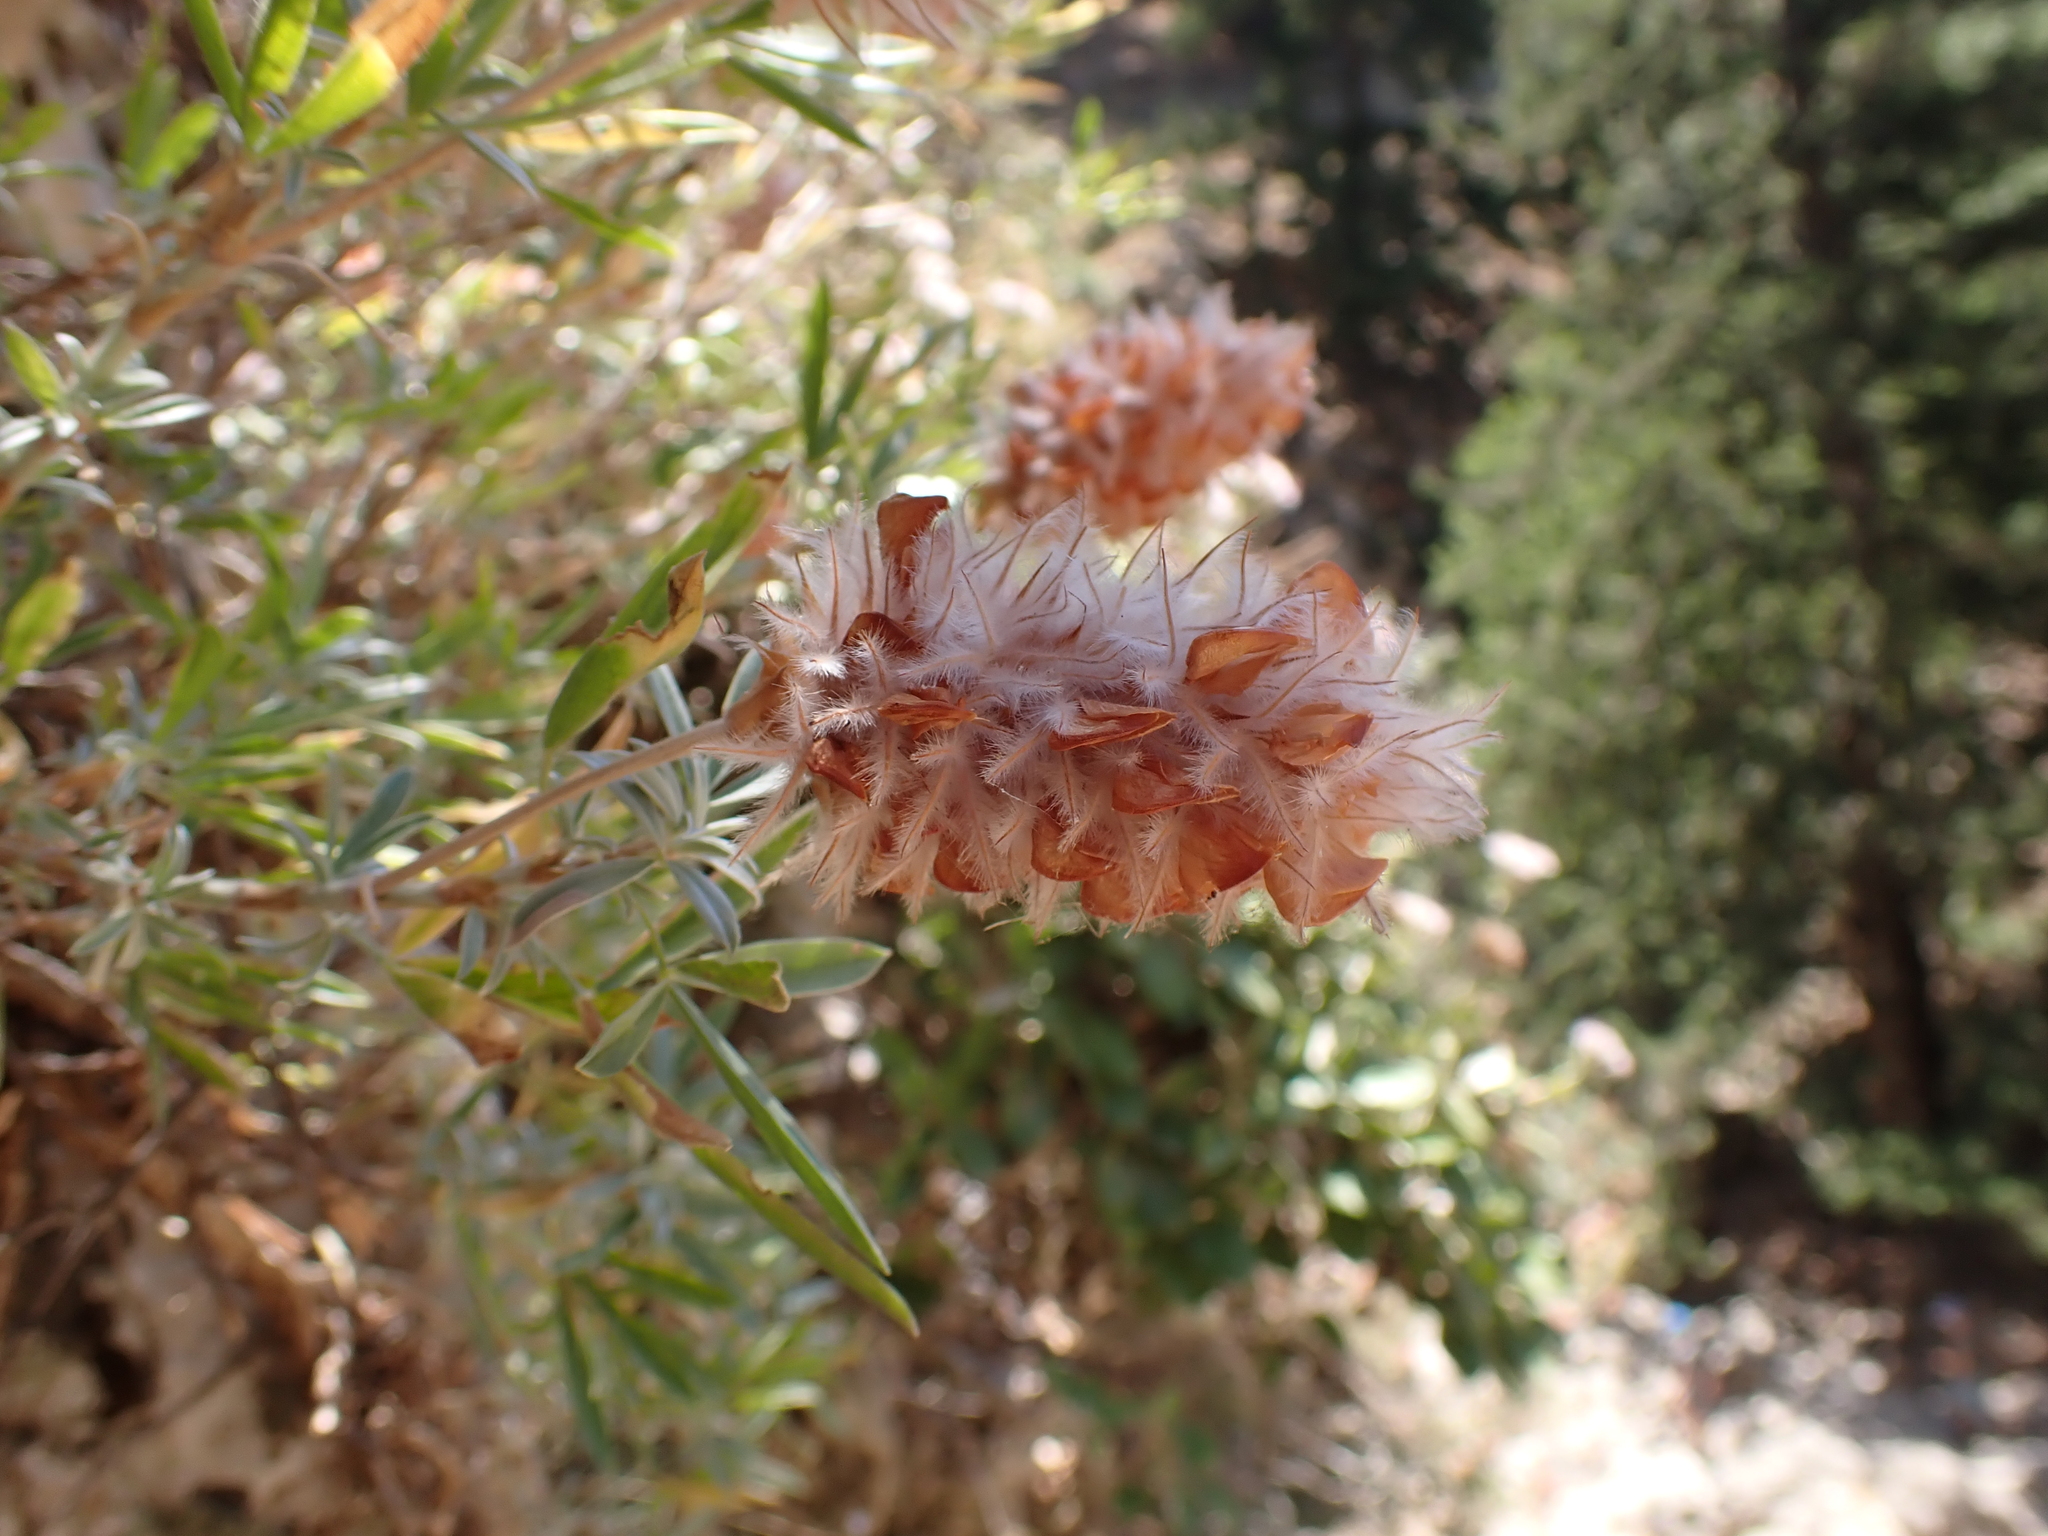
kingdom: Plantae
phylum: Tracheophyta
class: Magnoliopsida
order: Fabales
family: Fabaceae
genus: Ebenus
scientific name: Ebenus cretica
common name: Cretan silver bush
